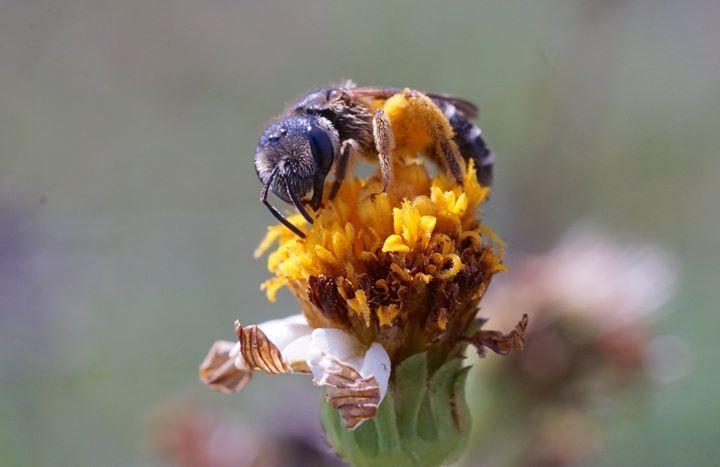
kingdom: Animalia
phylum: Arthropoda
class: Insecta
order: Hymenoptera
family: Halictidae
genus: Halictus
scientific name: Halictus poeyi
